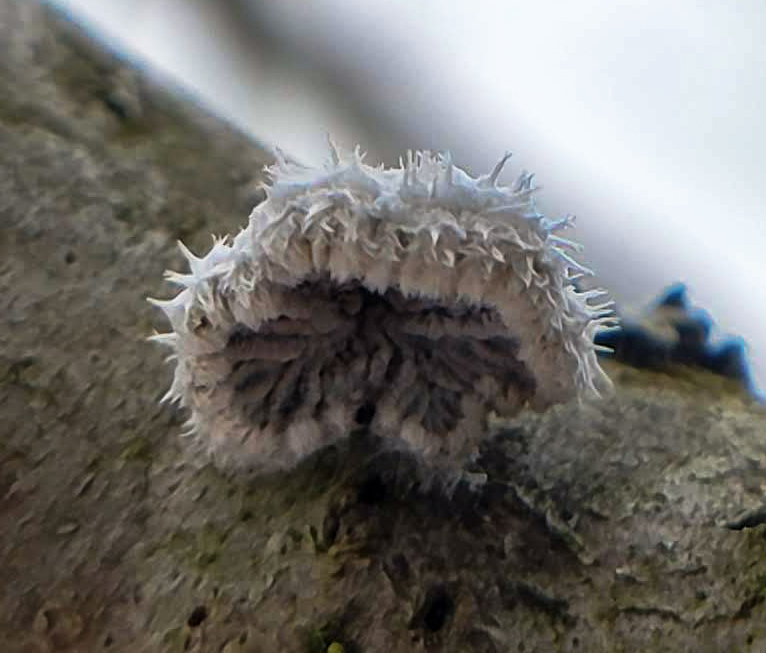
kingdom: Fungi
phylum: Basidiomycota
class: Agaricomycetes
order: Agaricales
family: Schizophyllaceae
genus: Schizophyllum
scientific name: Schizophyllum commune
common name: Common porecrust
